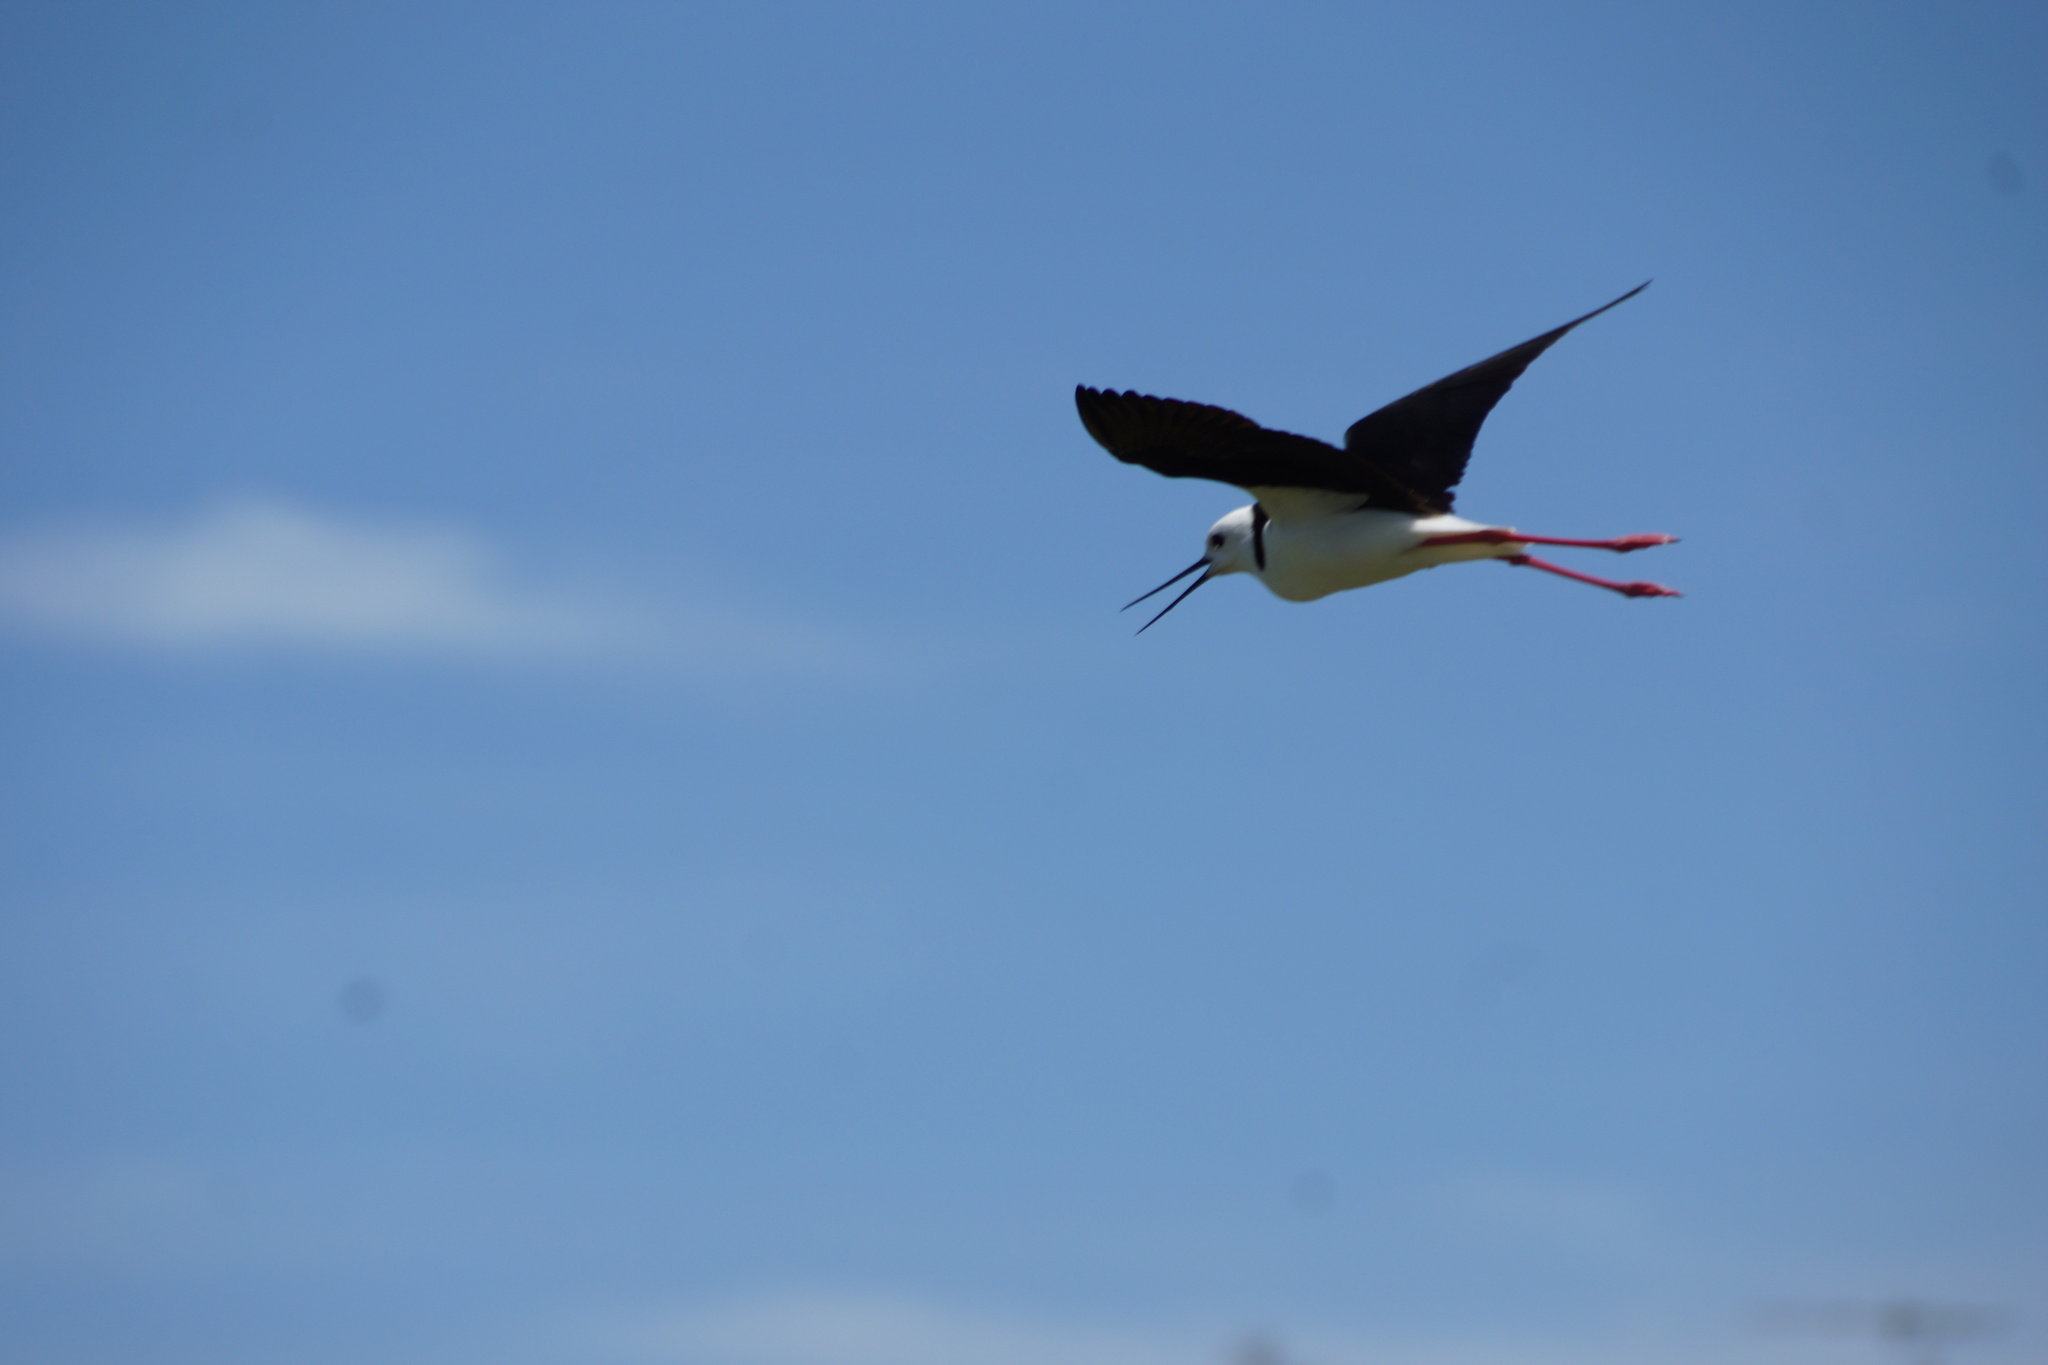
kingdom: Animalia
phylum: Chordata
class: Aves
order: Charadriiformes
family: Recurvirostridae
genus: Himantopus
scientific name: Himantopus leucocephalus
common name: White-headed stilt
